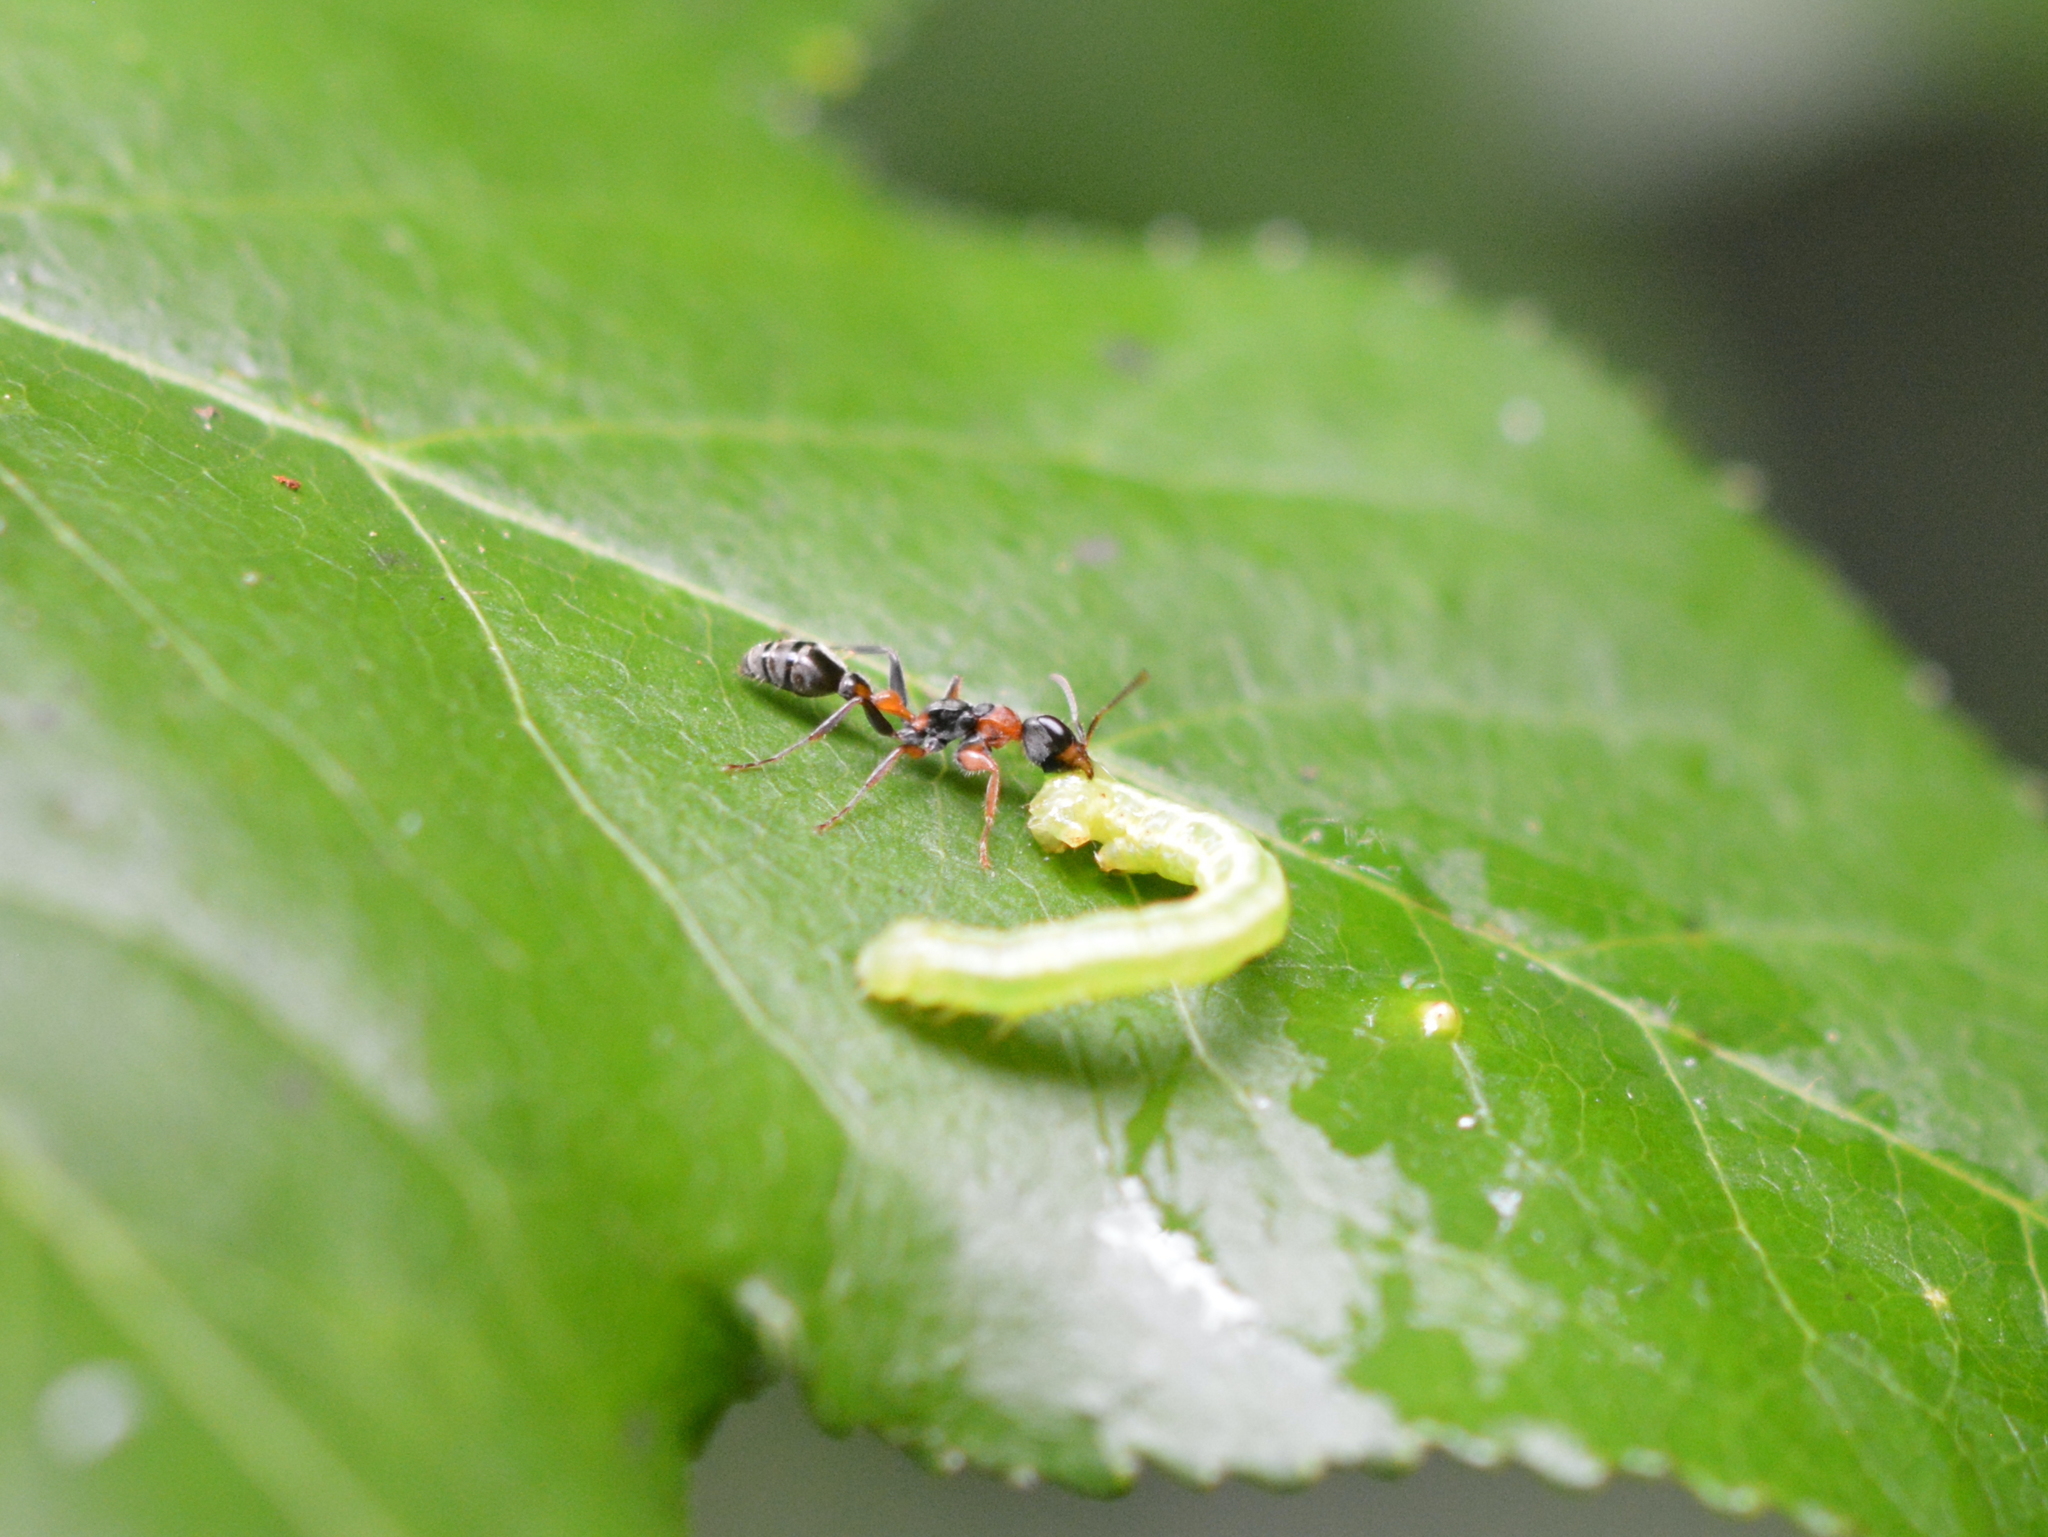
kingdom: Animalia
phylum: Arthropoda
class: Insecta
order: Hymenoptera
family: Formicidae
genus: Pseudomyrmex
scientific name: Pseudomyrmex gracilis
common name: Graceful twig ant
